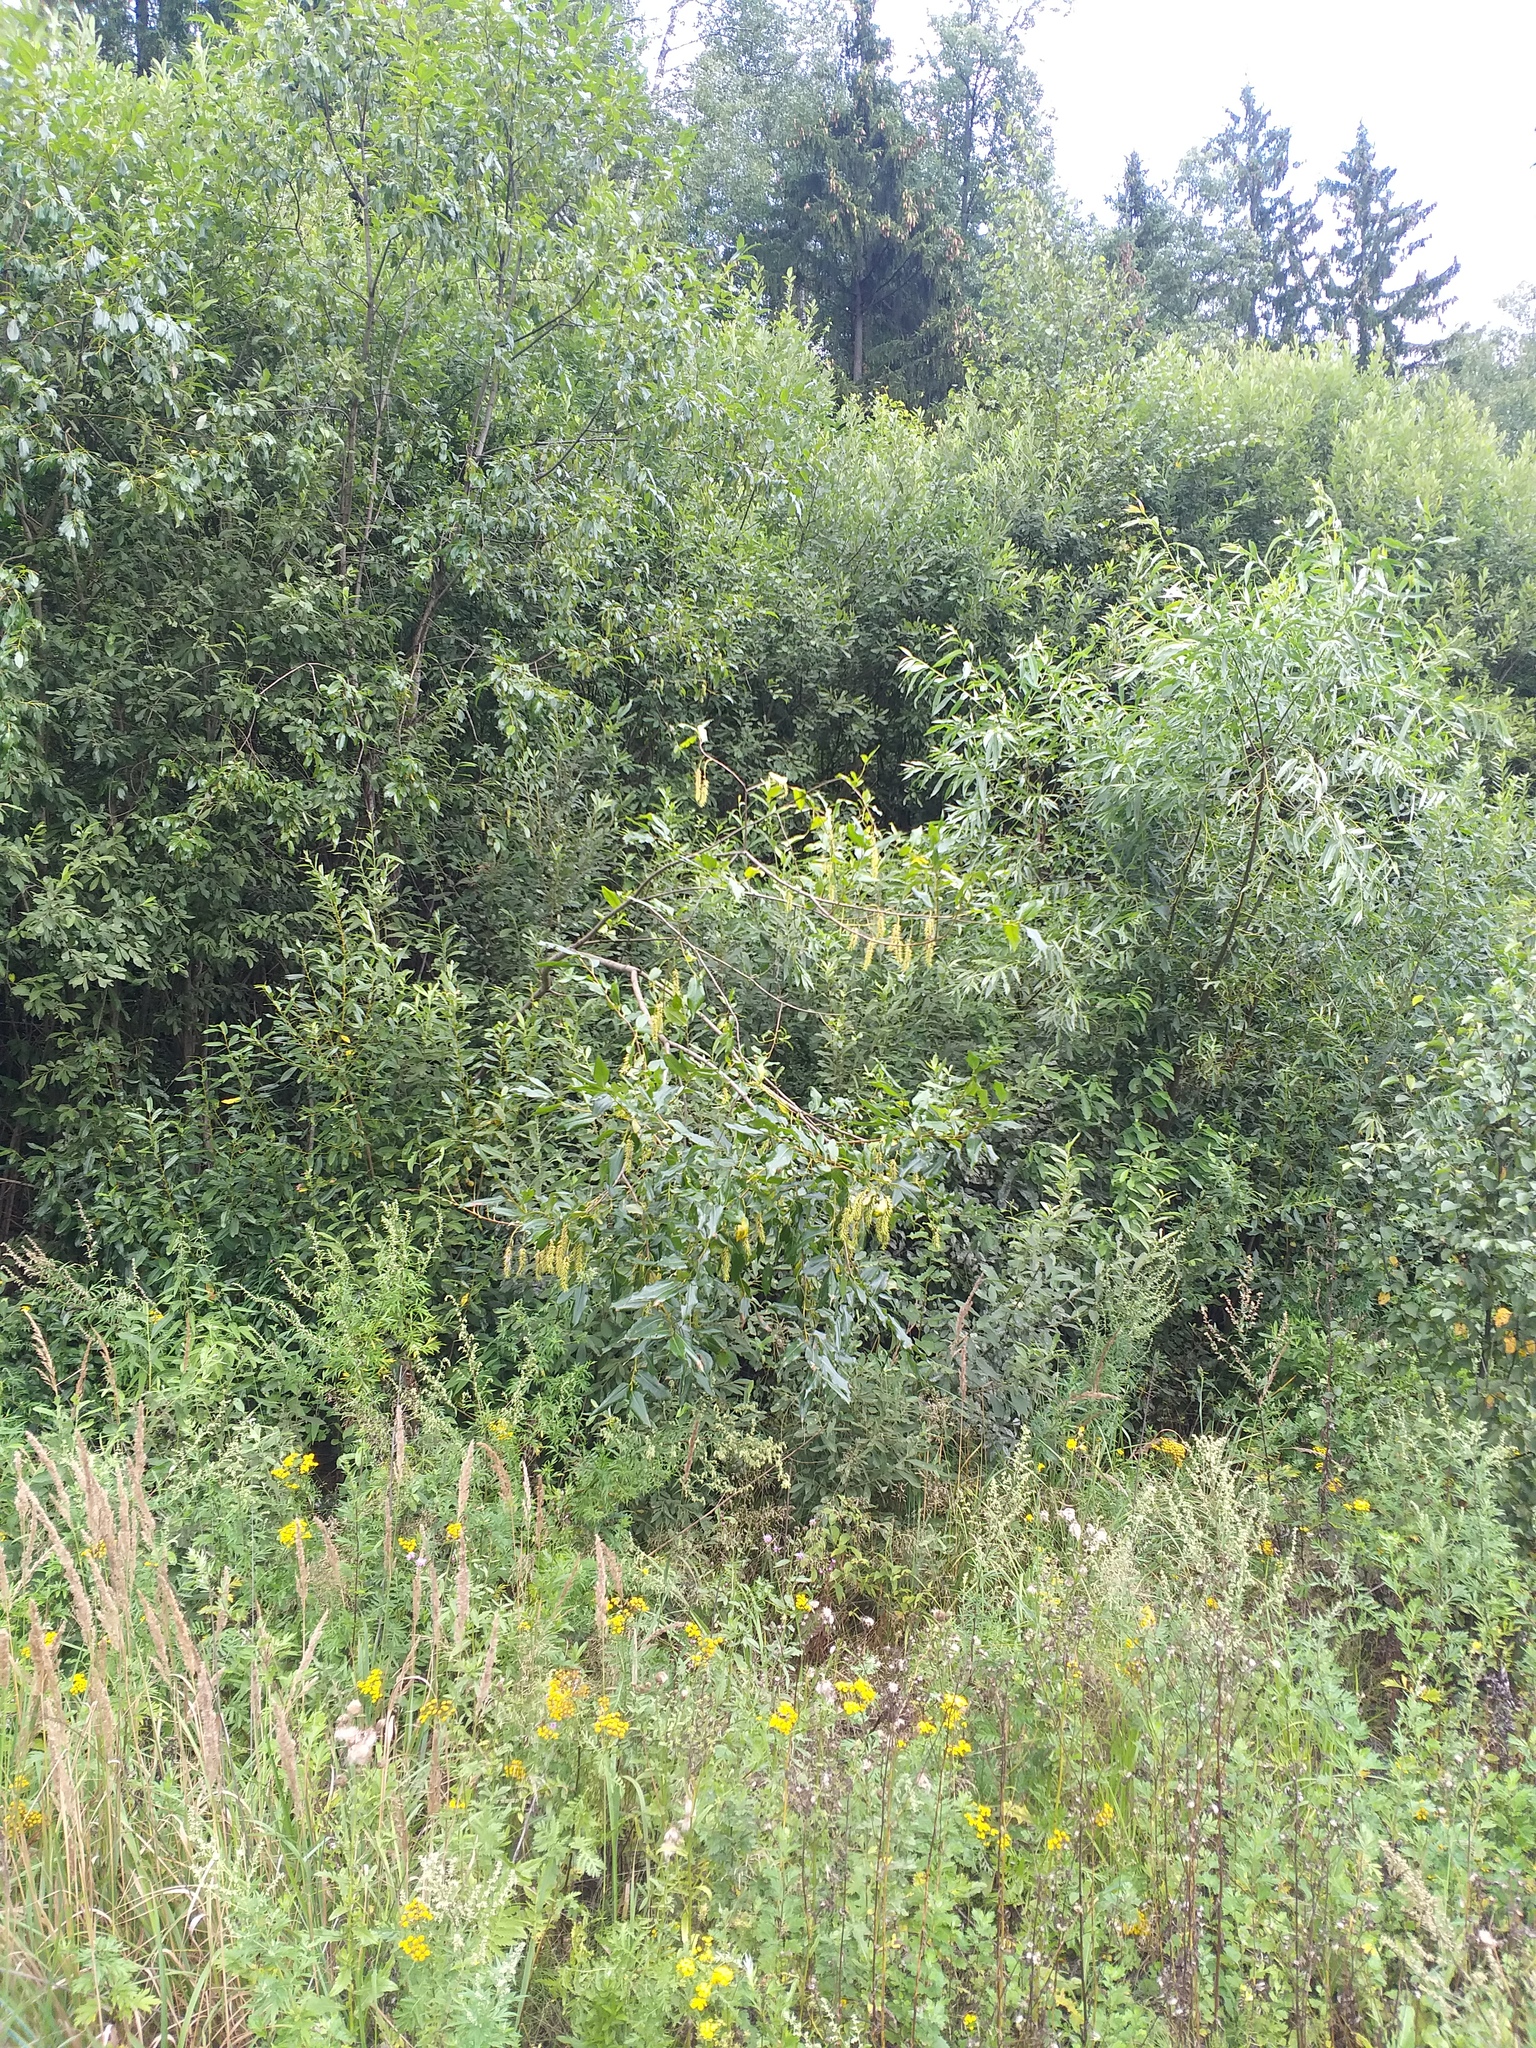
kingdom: Plantae
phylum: Tracheophyta
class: Magnoliopsida
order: Malpighiales
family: Salicaceae
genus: Salix
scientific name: Salix pentandra
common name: Bay willow
